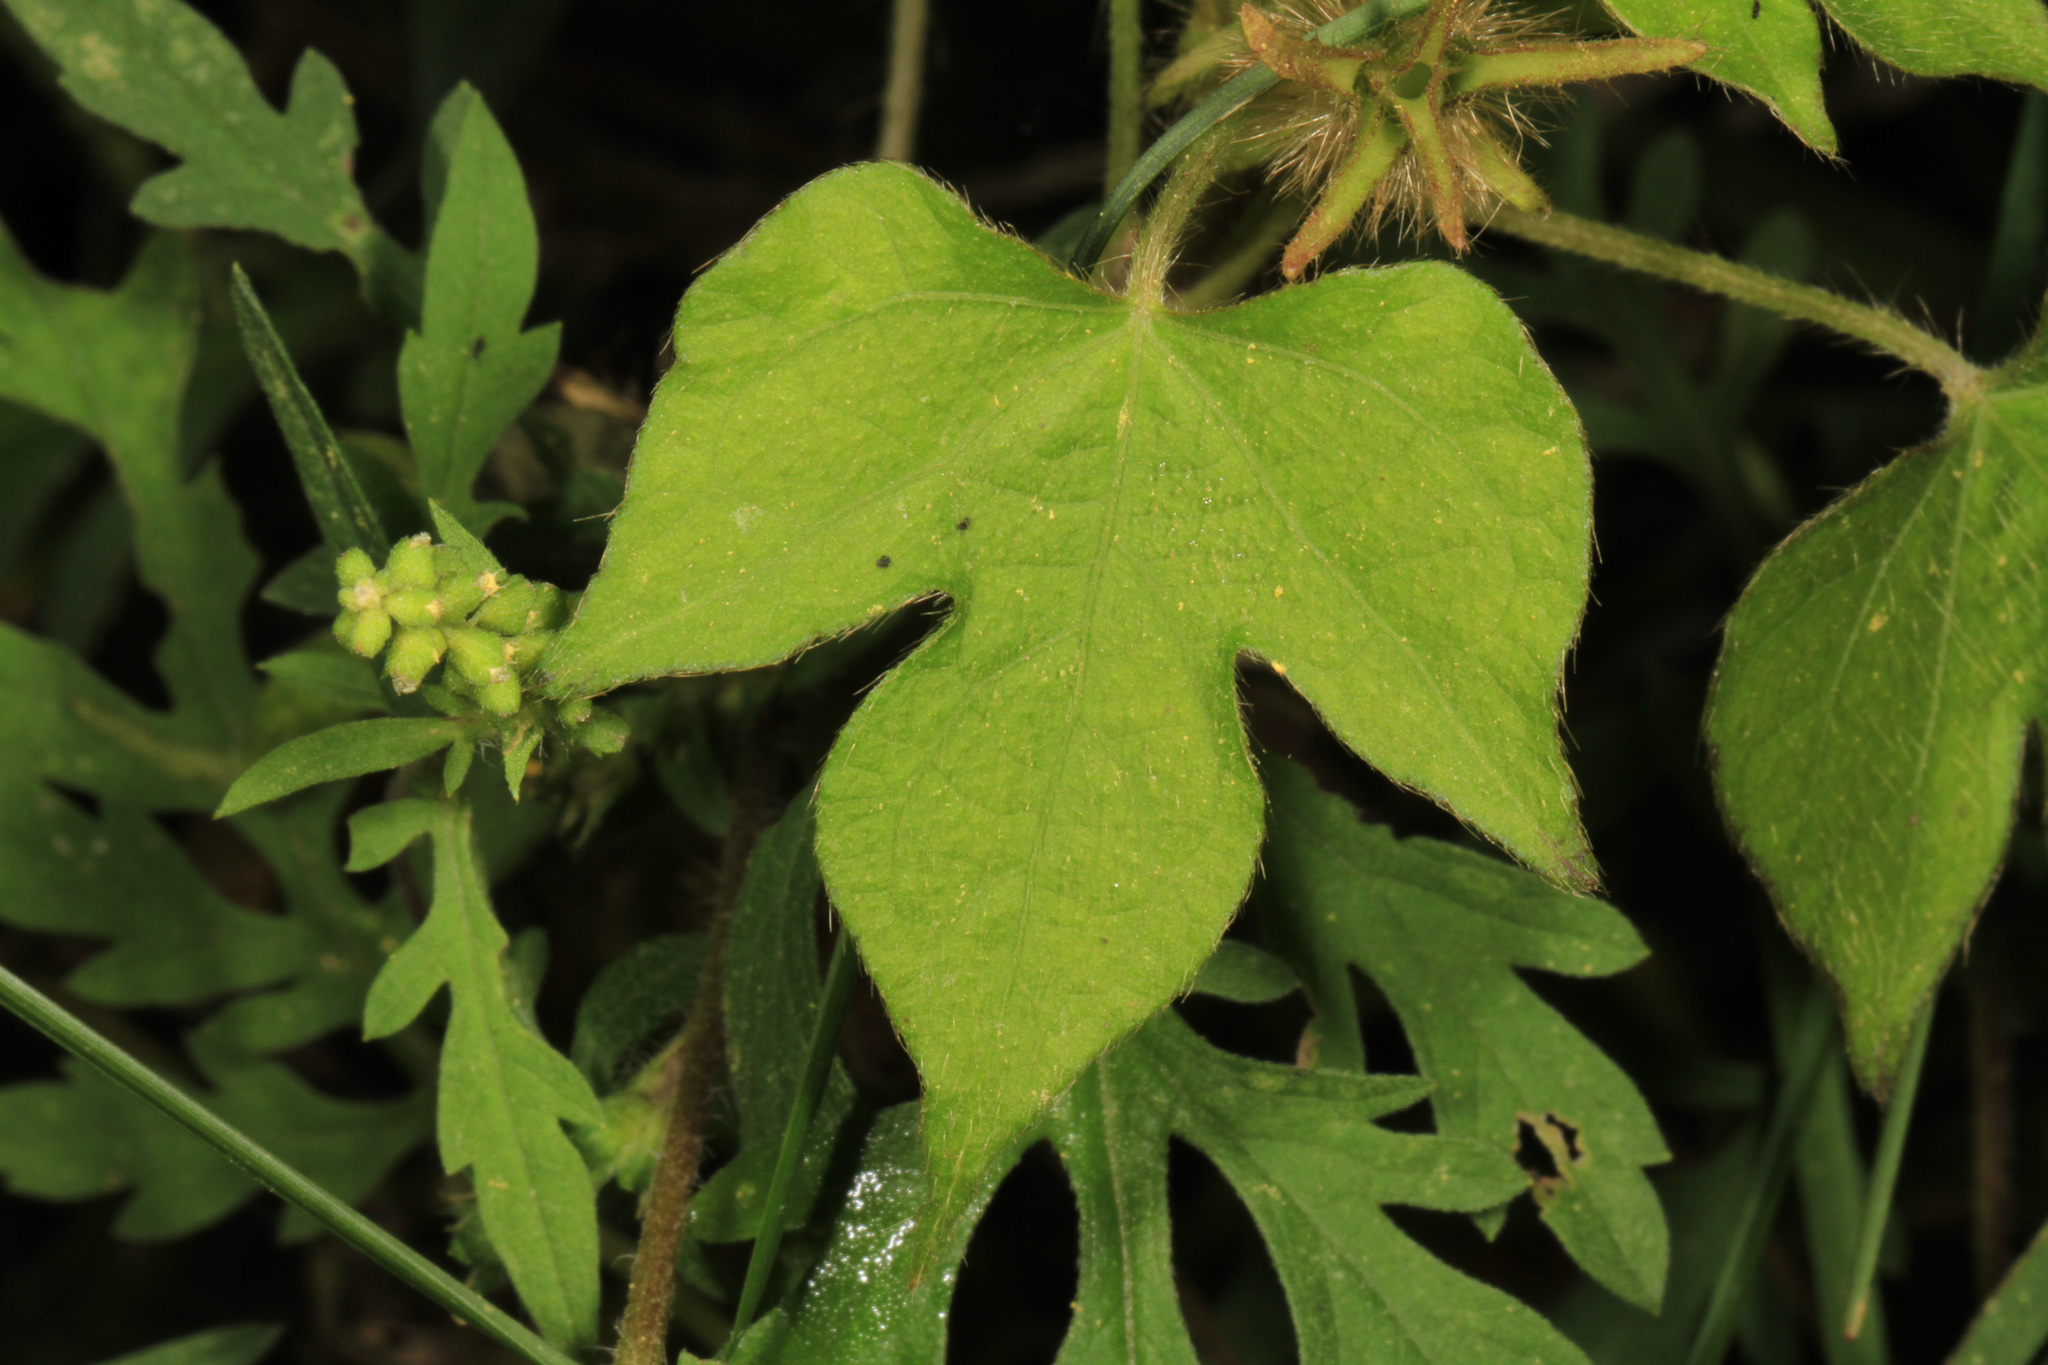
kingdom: Plantae
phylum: Tracheophyta
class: Magnoliopsida
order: Solanales
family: Convolvulaceae
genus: Ipomoea
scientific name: Ipomoea hederacea
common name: Ivy-leaved morning-glory
